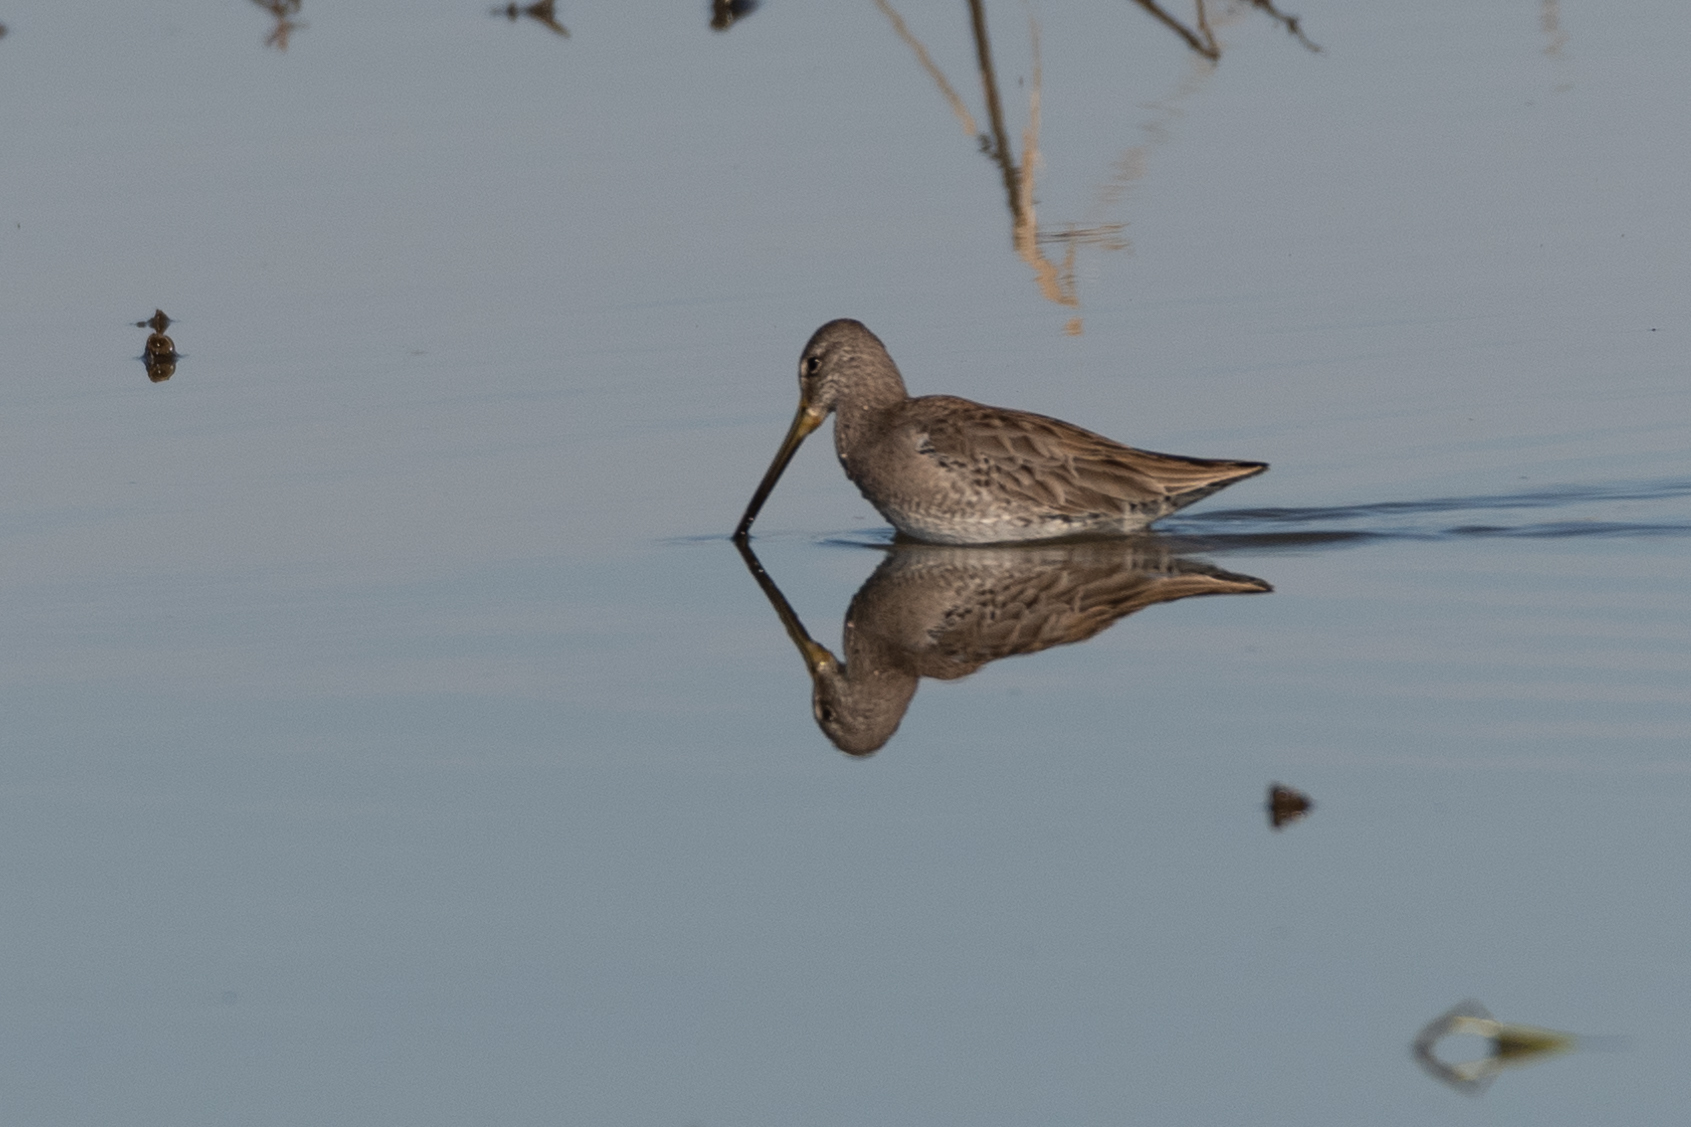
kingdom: Animalia
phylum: Chordata
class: Aves
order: Charadriiformes
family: Scolopacidae
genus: Limnodromus
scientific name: Limnodromus scolopaceus
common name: Long-billed dowitcher
